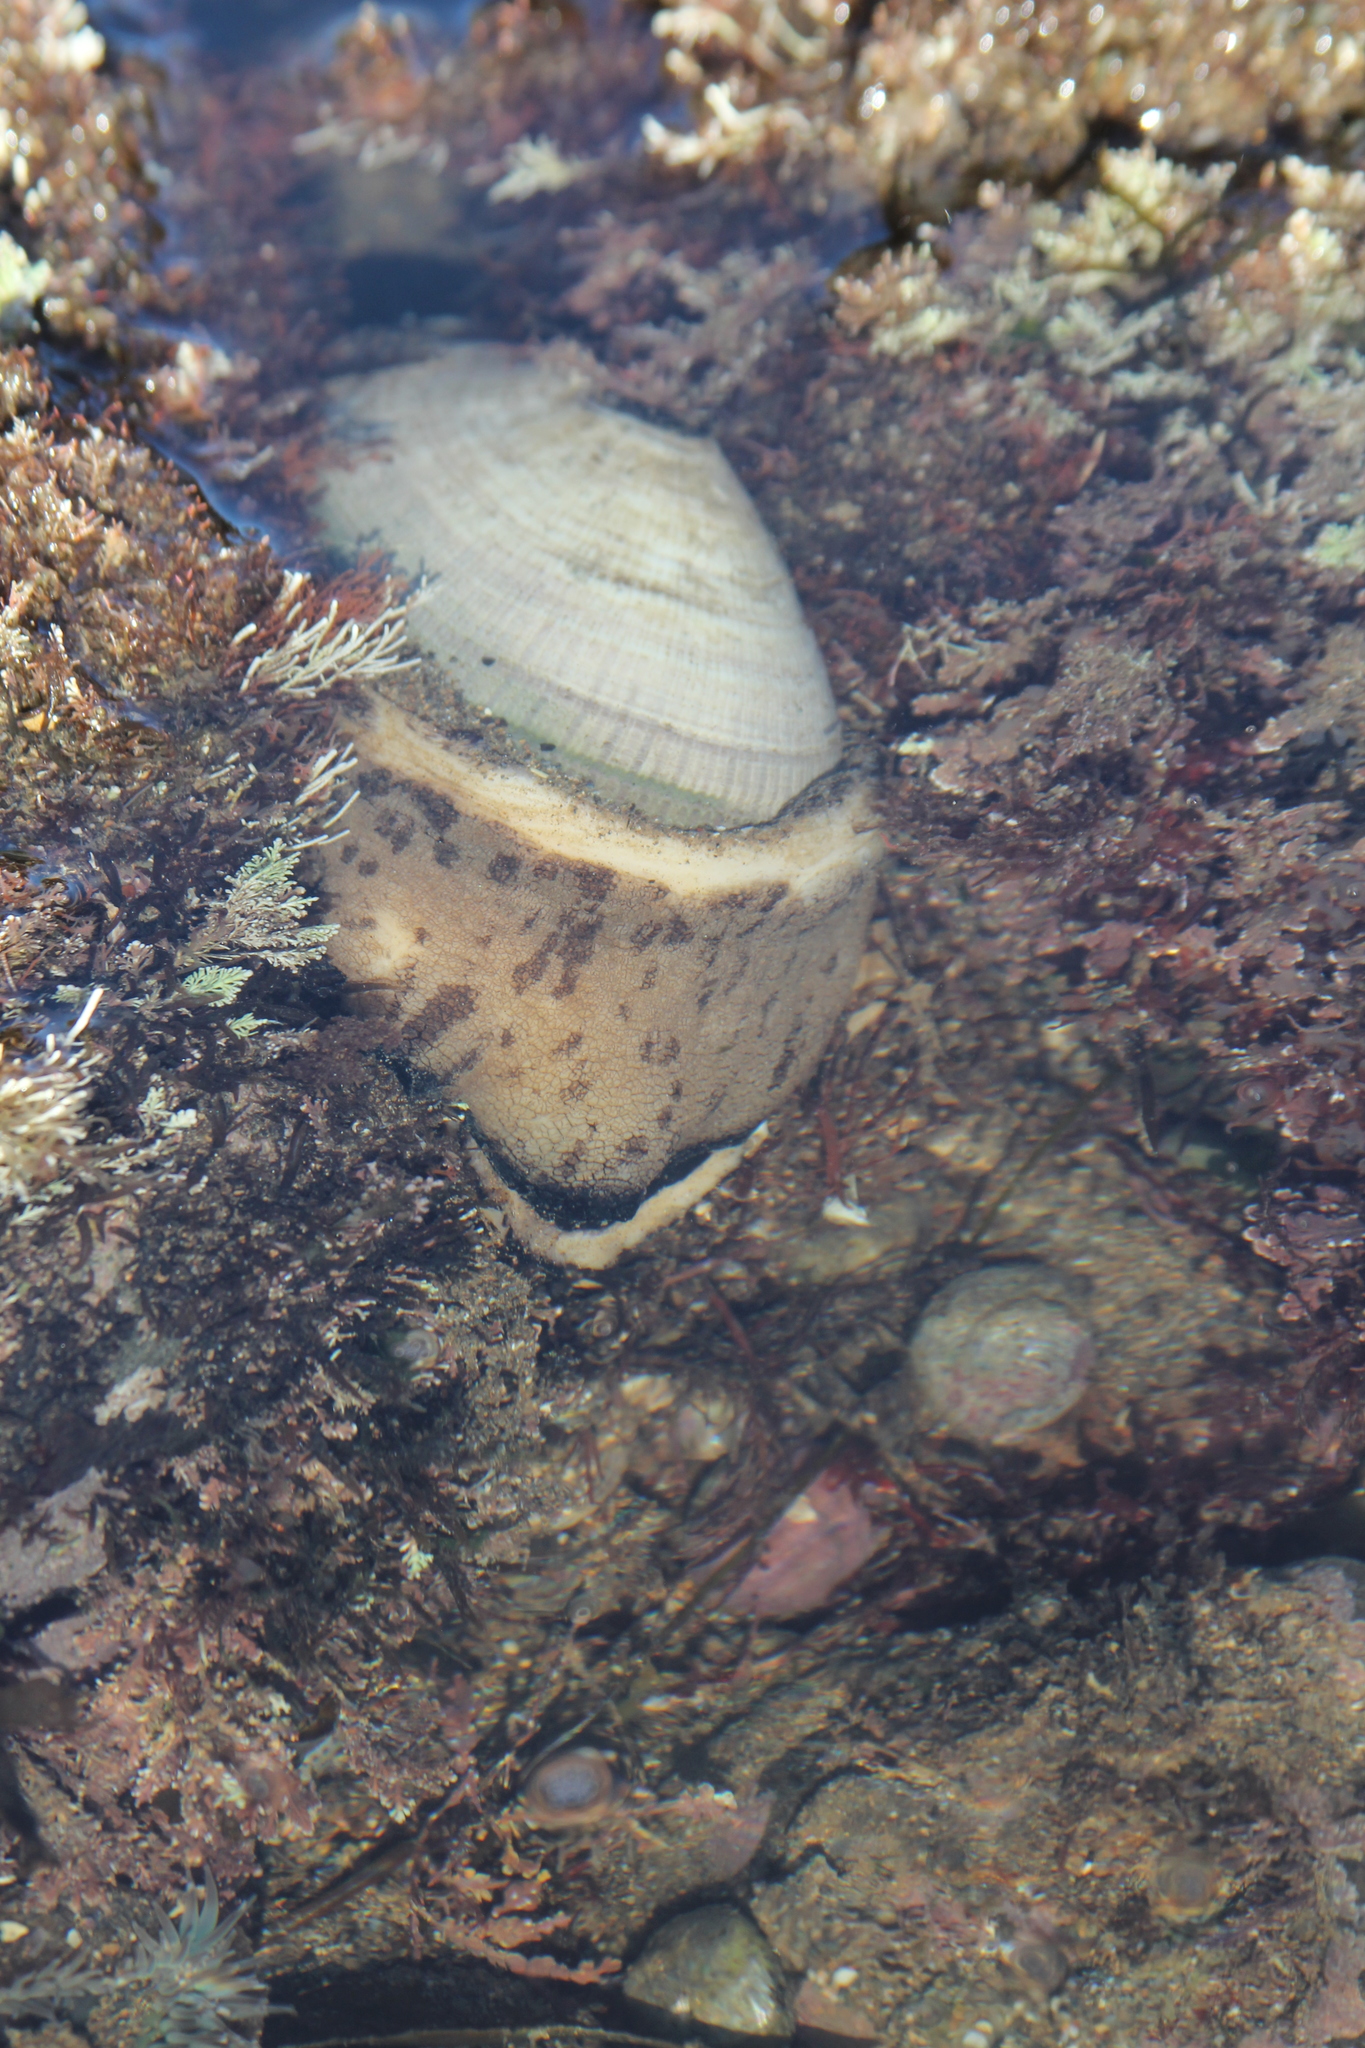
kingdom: Animalia
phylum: Mollusca
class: Gastropoda
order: Lepetellida
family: Fissurellidae
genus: Megathura
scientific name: Megathura crenulata
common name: Giant keyhole limpet
